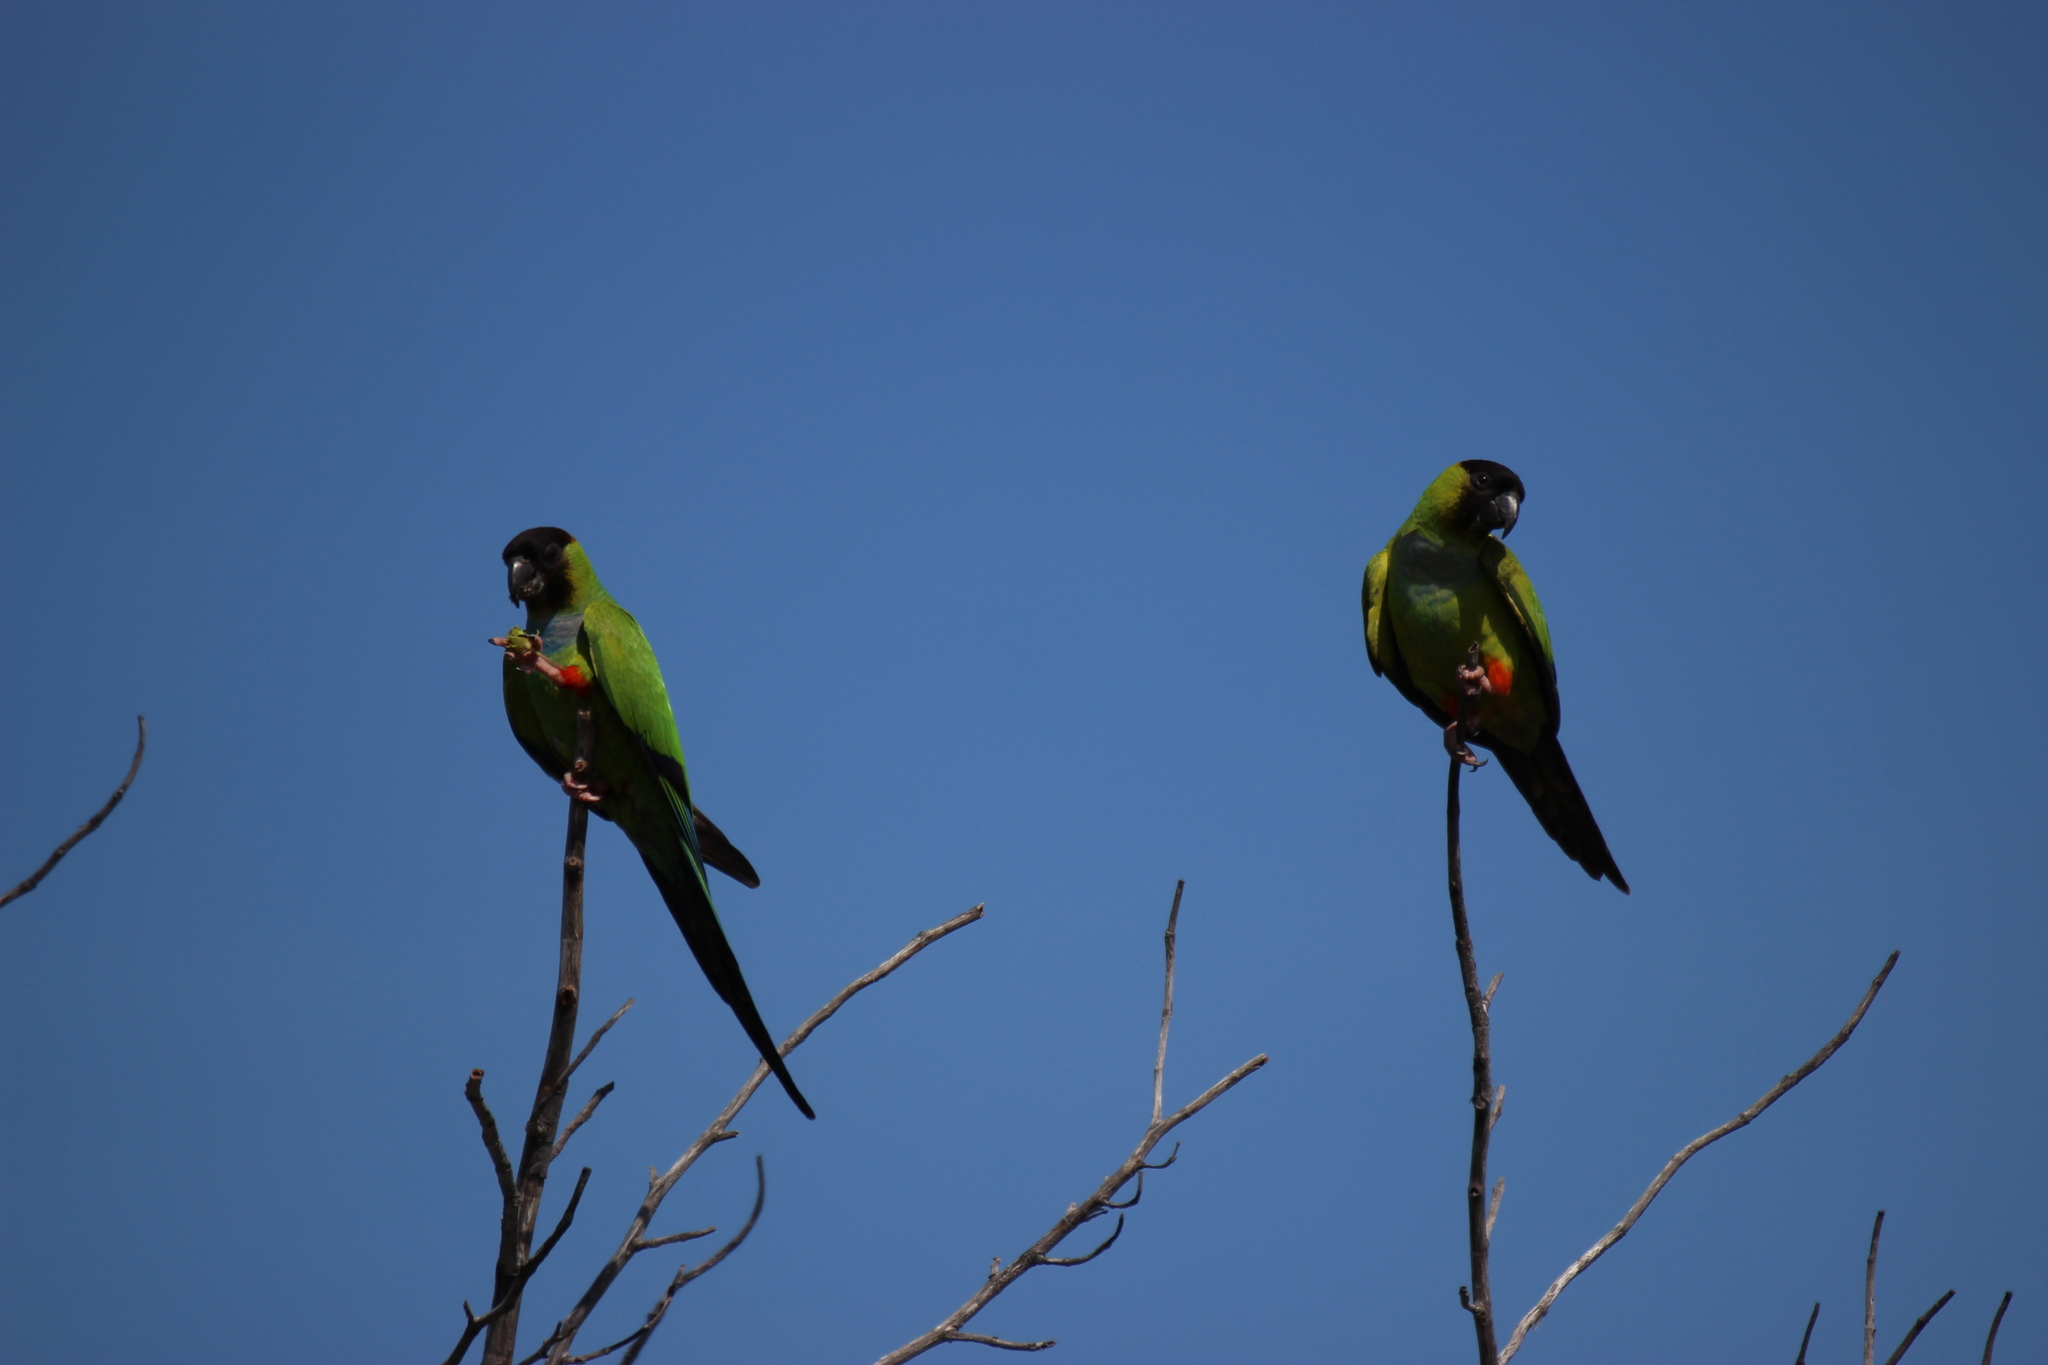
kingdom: Animalia
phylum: Chordata
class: Aves
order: Psittaciformes
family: Psittacidae
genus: Nandayus
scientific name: Nandayus nenday
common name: Nanday parakeet
